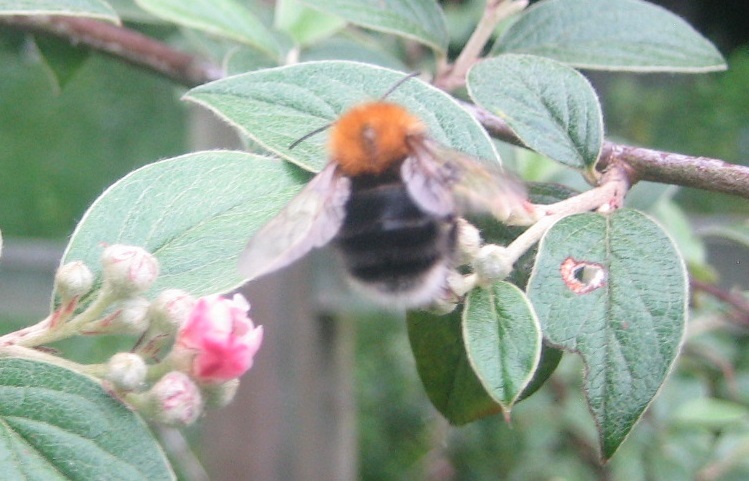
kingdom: Animalia
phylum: Arthropoda
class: Insecta
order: Hymenoptera
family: Apidae
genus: Bombus
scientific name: Bombus hypnorum
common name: New garden bumblebee
